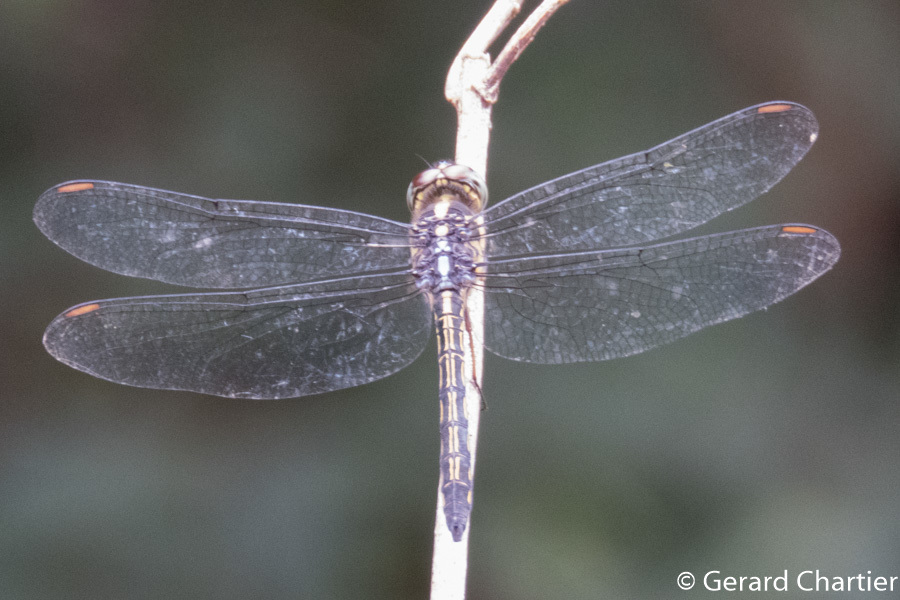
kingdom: Animalia
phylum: Arthropoda
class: Insecta
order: Odonata
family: Libellulidae
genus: Cratilla
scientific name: Cratilla lineata
